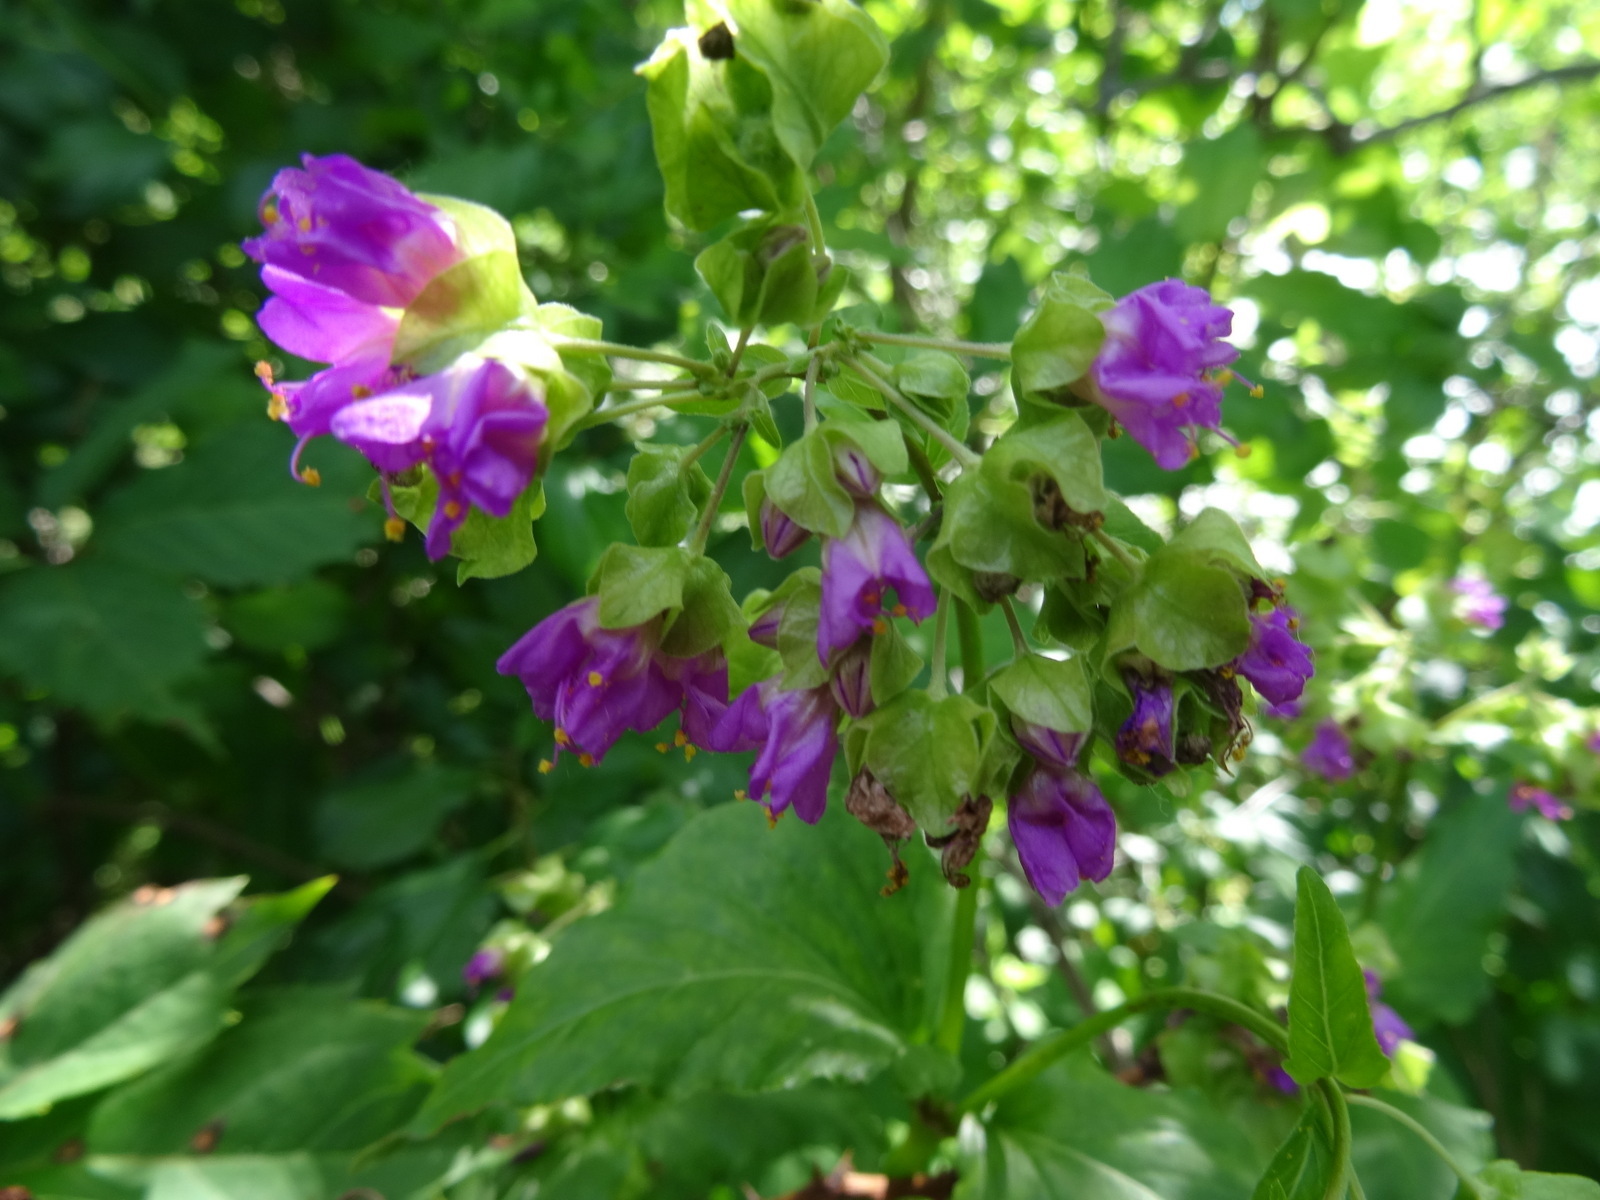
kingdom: Plantae
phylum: Tracheophyta
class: Magnoliopsida
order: Caryophyllales
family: Nyctaginaceae
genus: Mirabilis
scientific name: Mirabilis nyctaginea
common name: Umbrella wort
